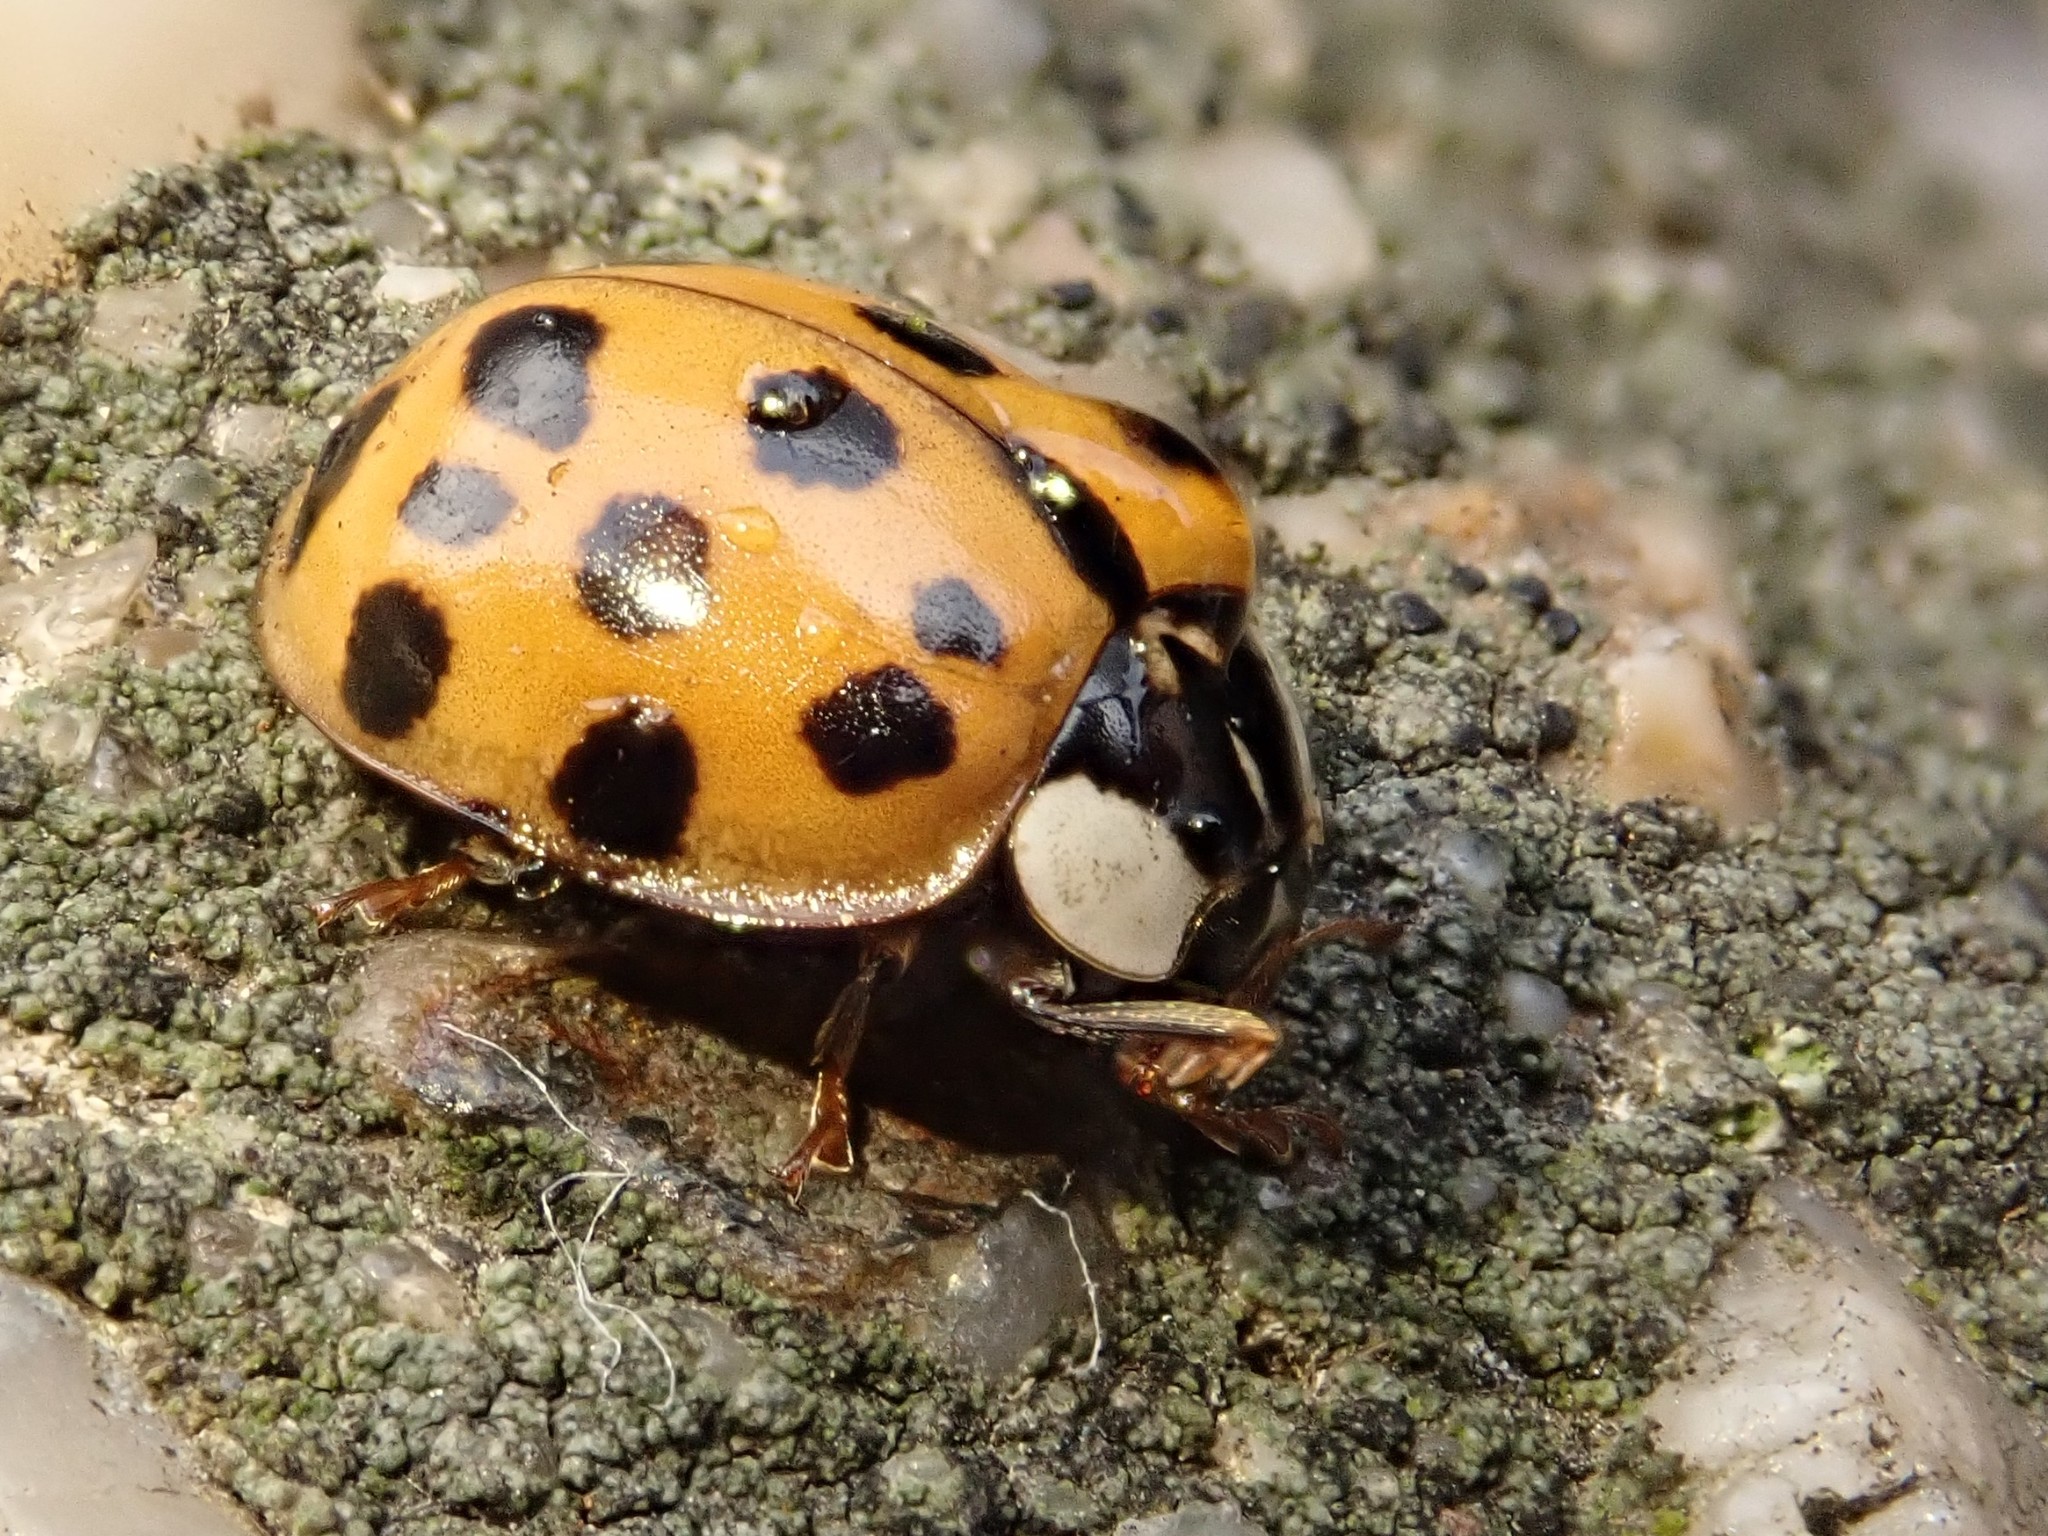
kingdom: Animalia
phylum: Arthropoda
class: Insecta
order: Coleoptera
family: Coccinellidae
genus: Harmonia
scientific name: Harmonia axyridis
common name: Harlequin ladybird
